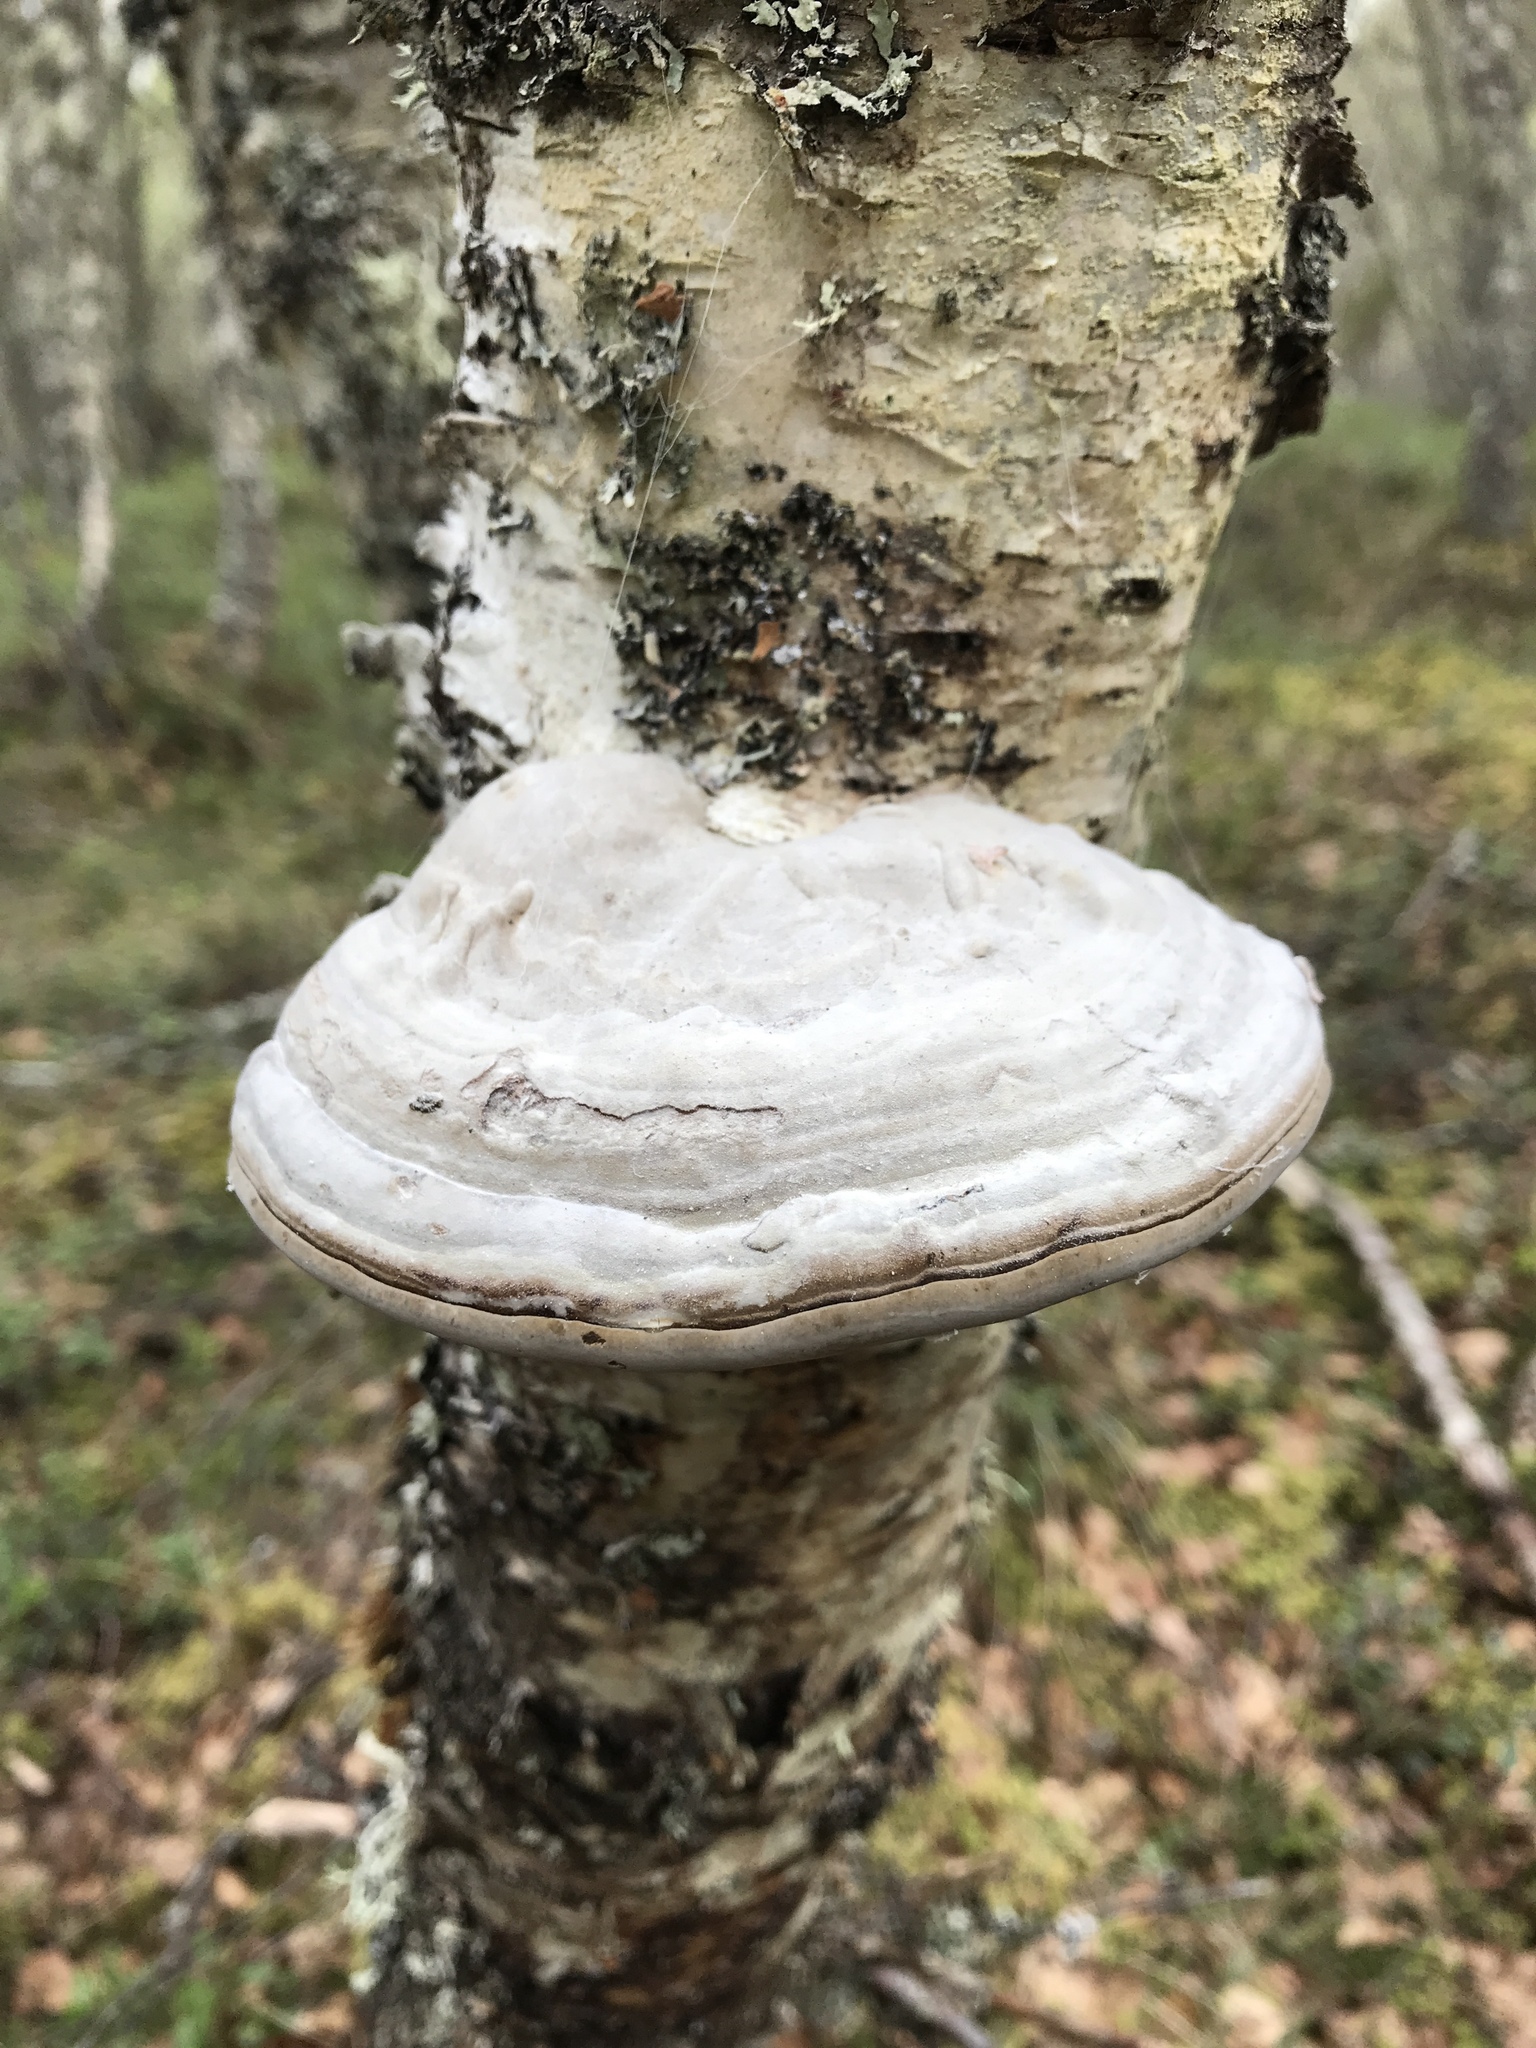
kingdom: Fungi
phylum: Basidiomycota
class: Agaricomycetes
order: Polyporales
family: Polyporaceae
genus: Fomes
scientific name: Fomes fomentarius
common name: Hoof fungus
